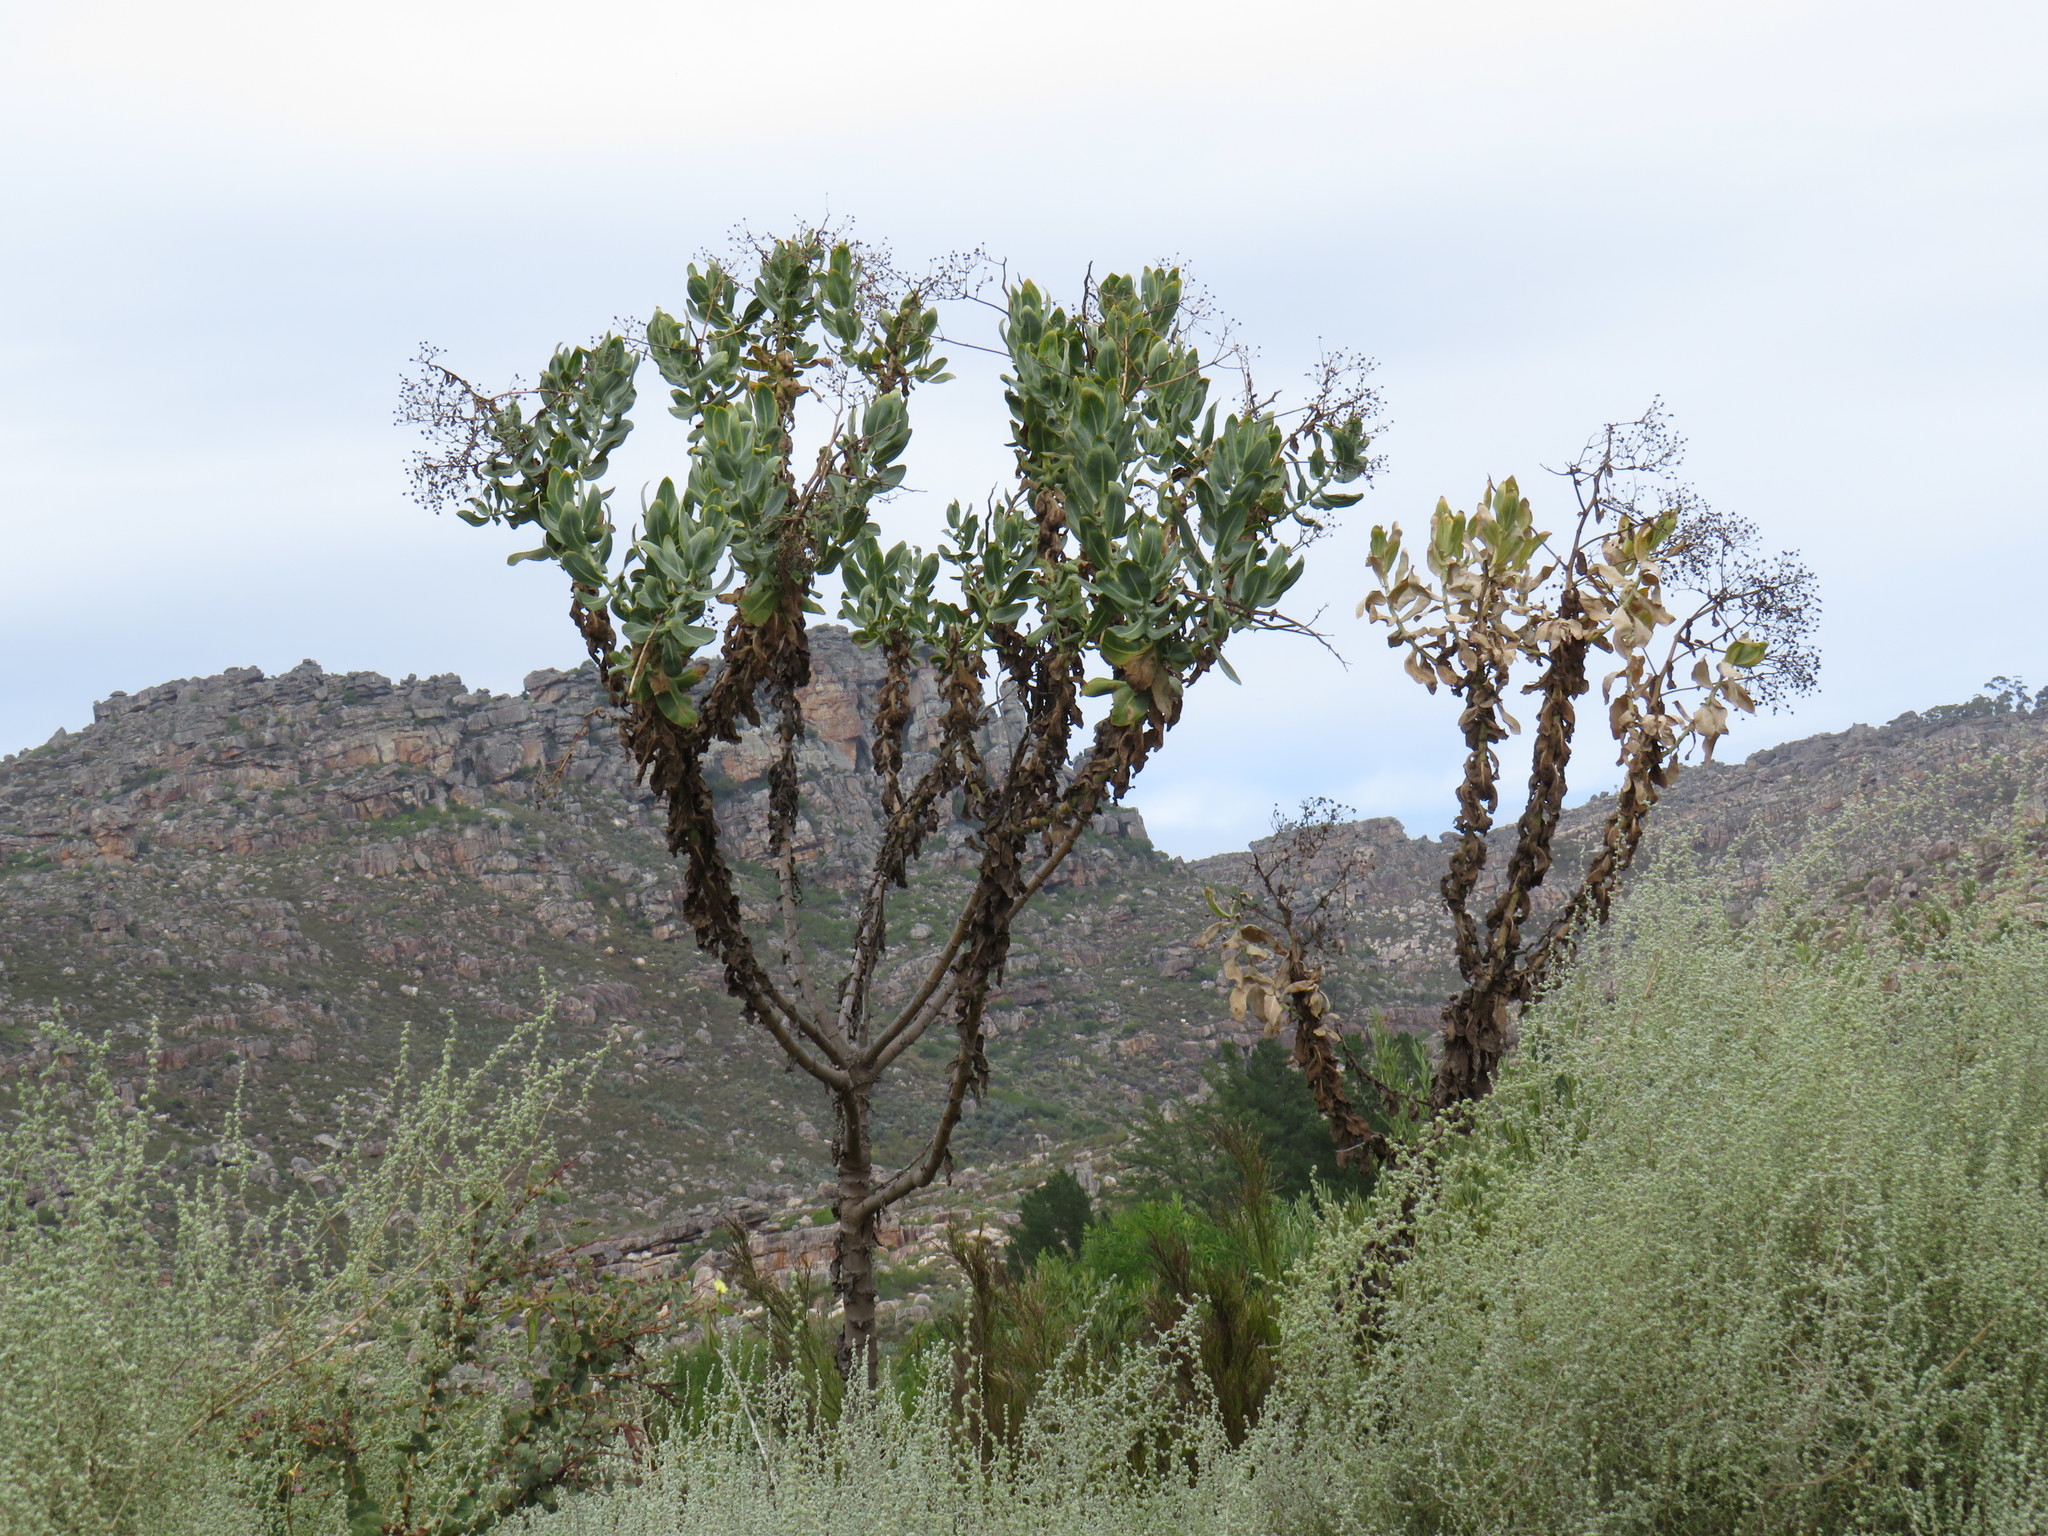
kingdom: Plantae
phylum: Tracheophyta
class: Magnoliopsida
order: Asterales
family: Asteraceae
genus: Othonna
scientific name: Othonna parviflora
